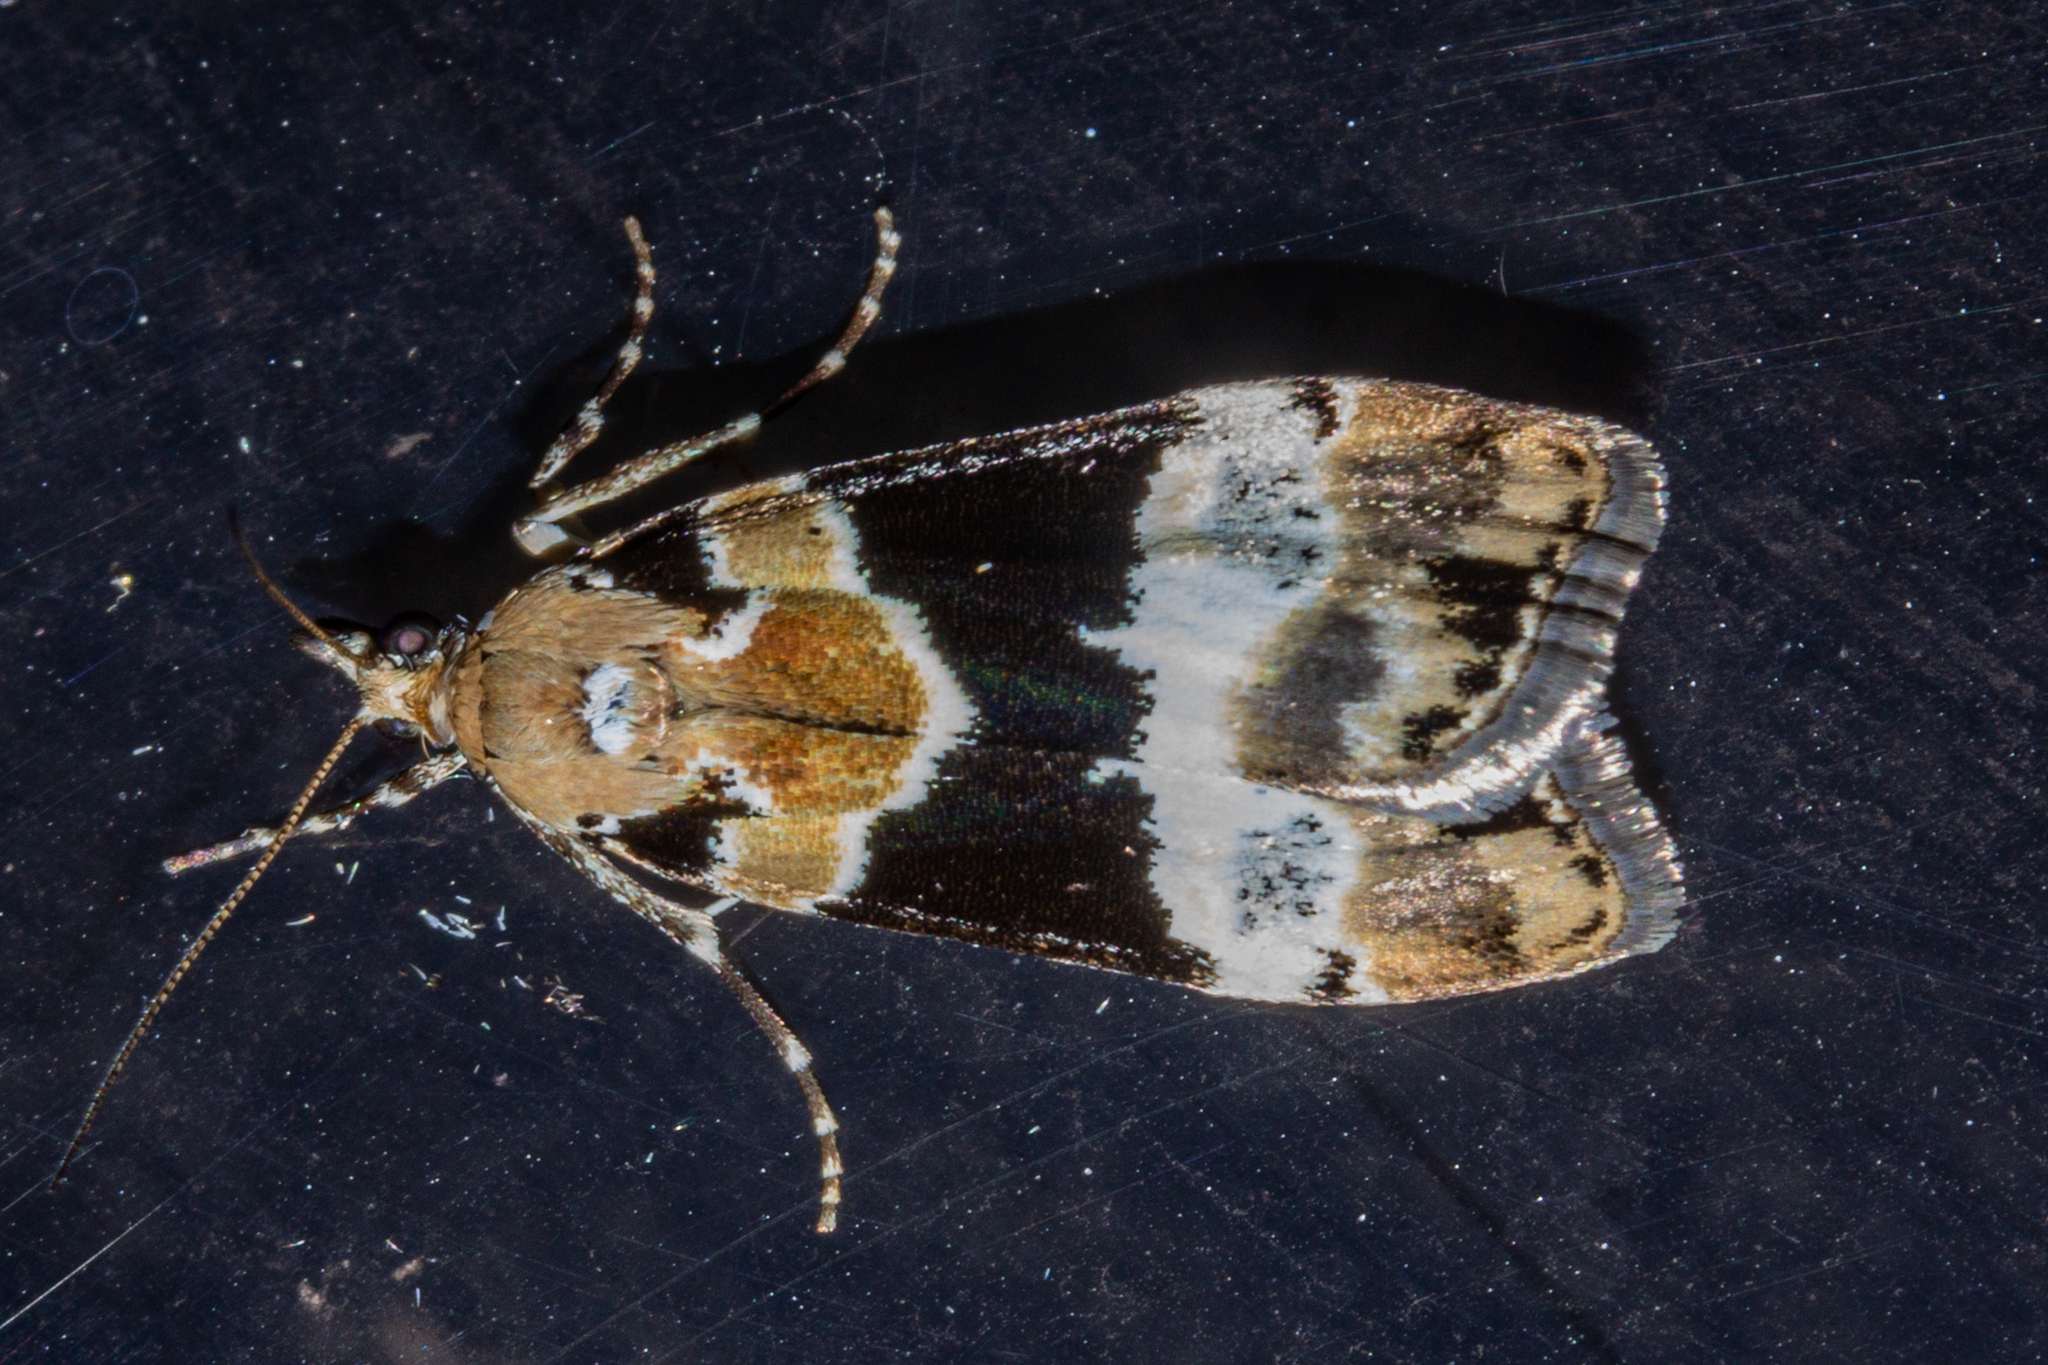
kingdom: Animalia
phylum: Arthropoda
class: Insecta
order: Lepidoptera
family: Crambidae
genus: Eudonia
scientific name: Eudonia aspidota
